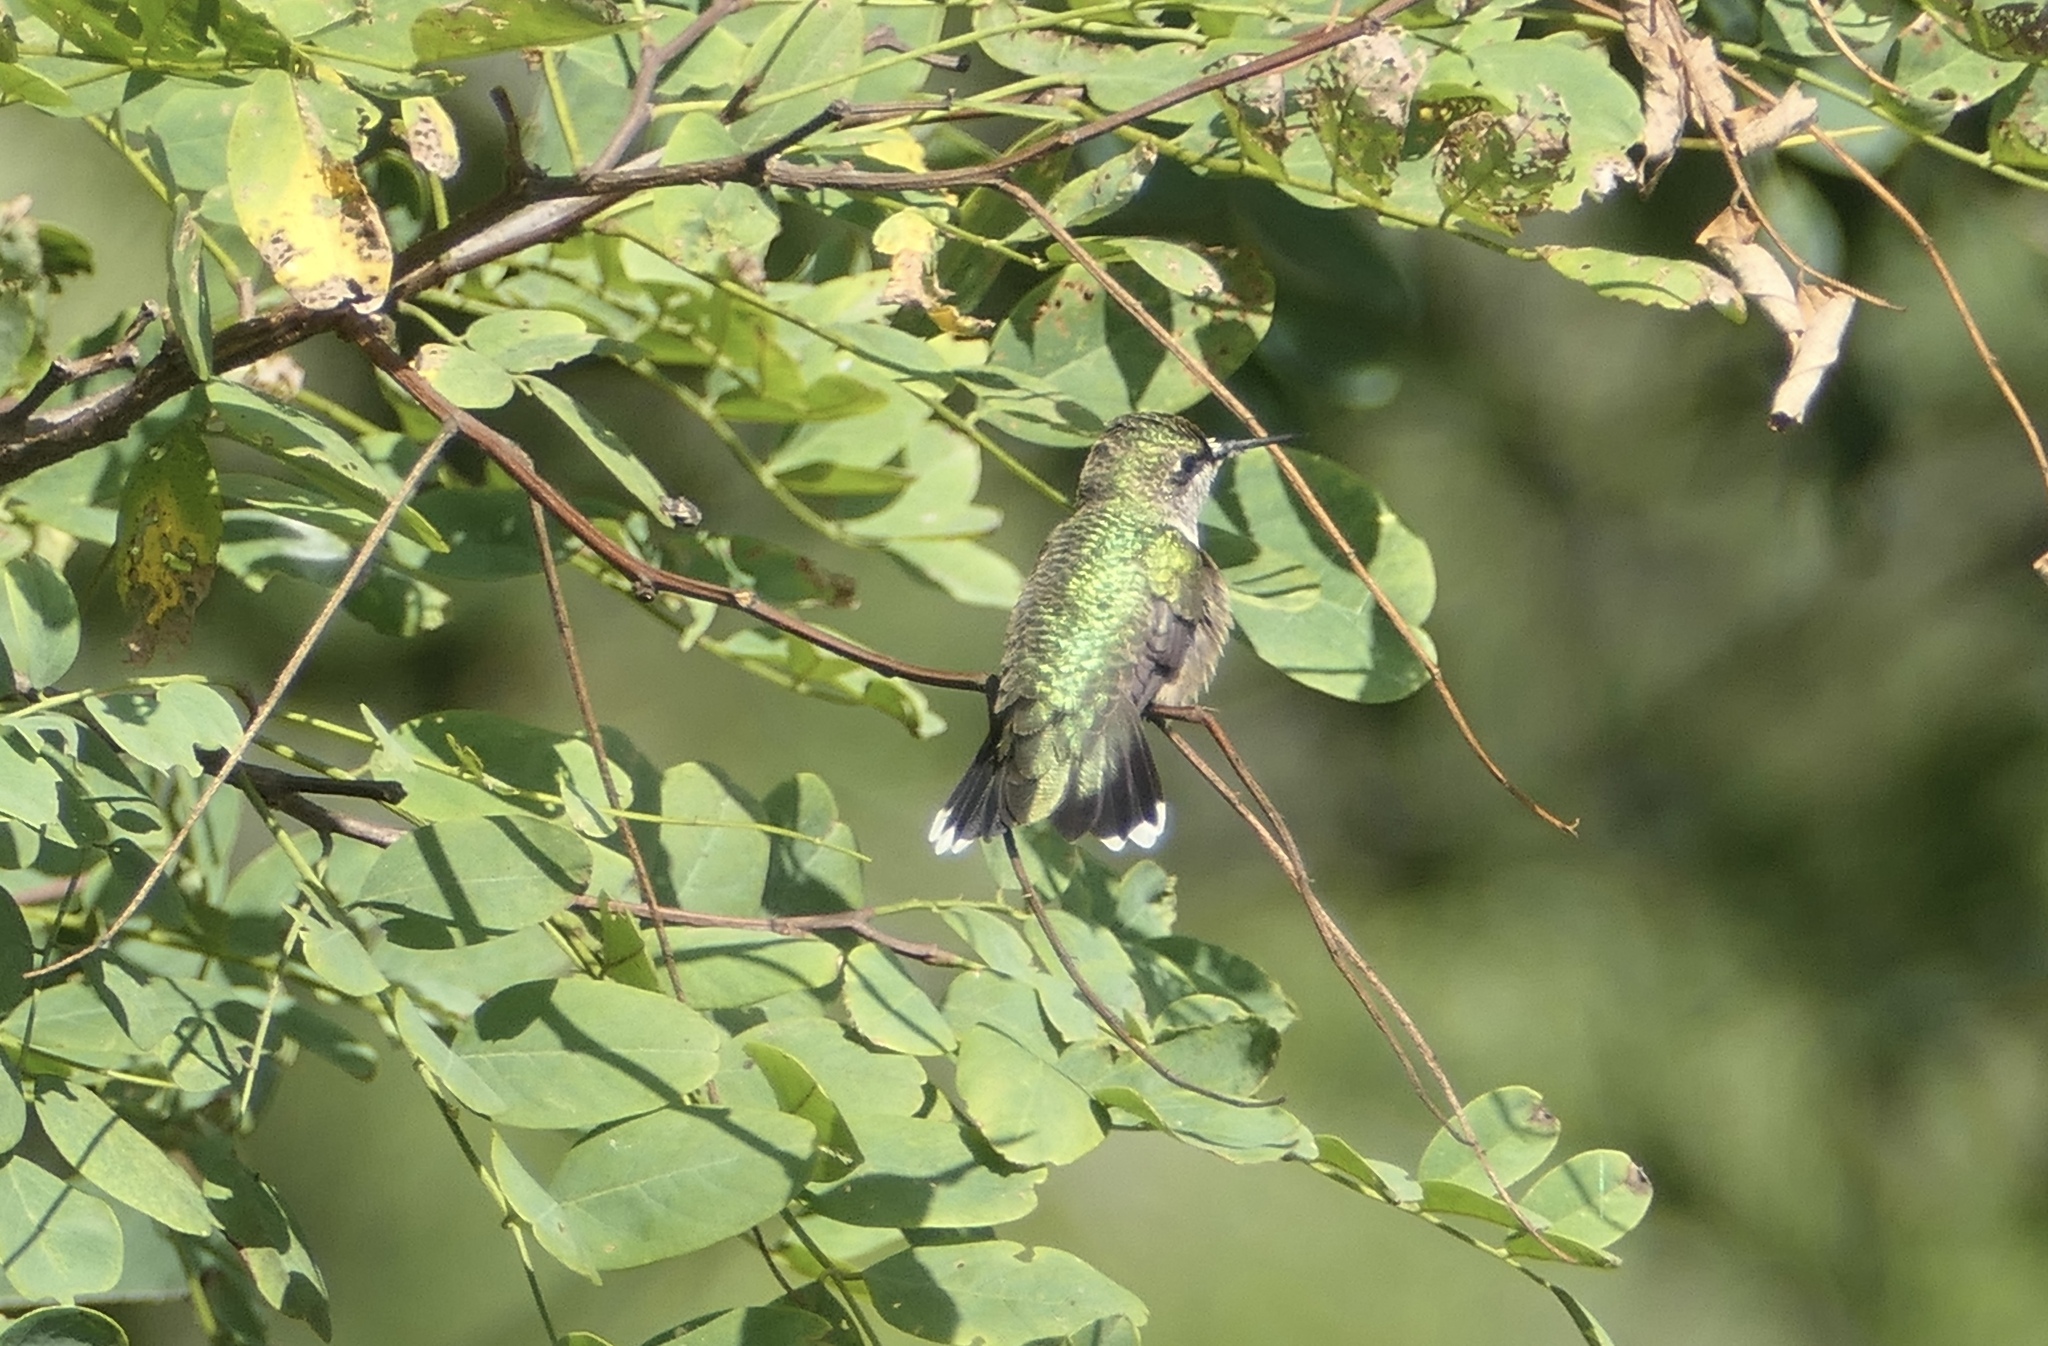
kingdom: Animalia
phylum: Chordata
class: Aves
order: Apodiformes
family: Trochilidae
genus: Archilochus
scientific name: Archilochus colubris
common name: Ruby-throated hummingbird
